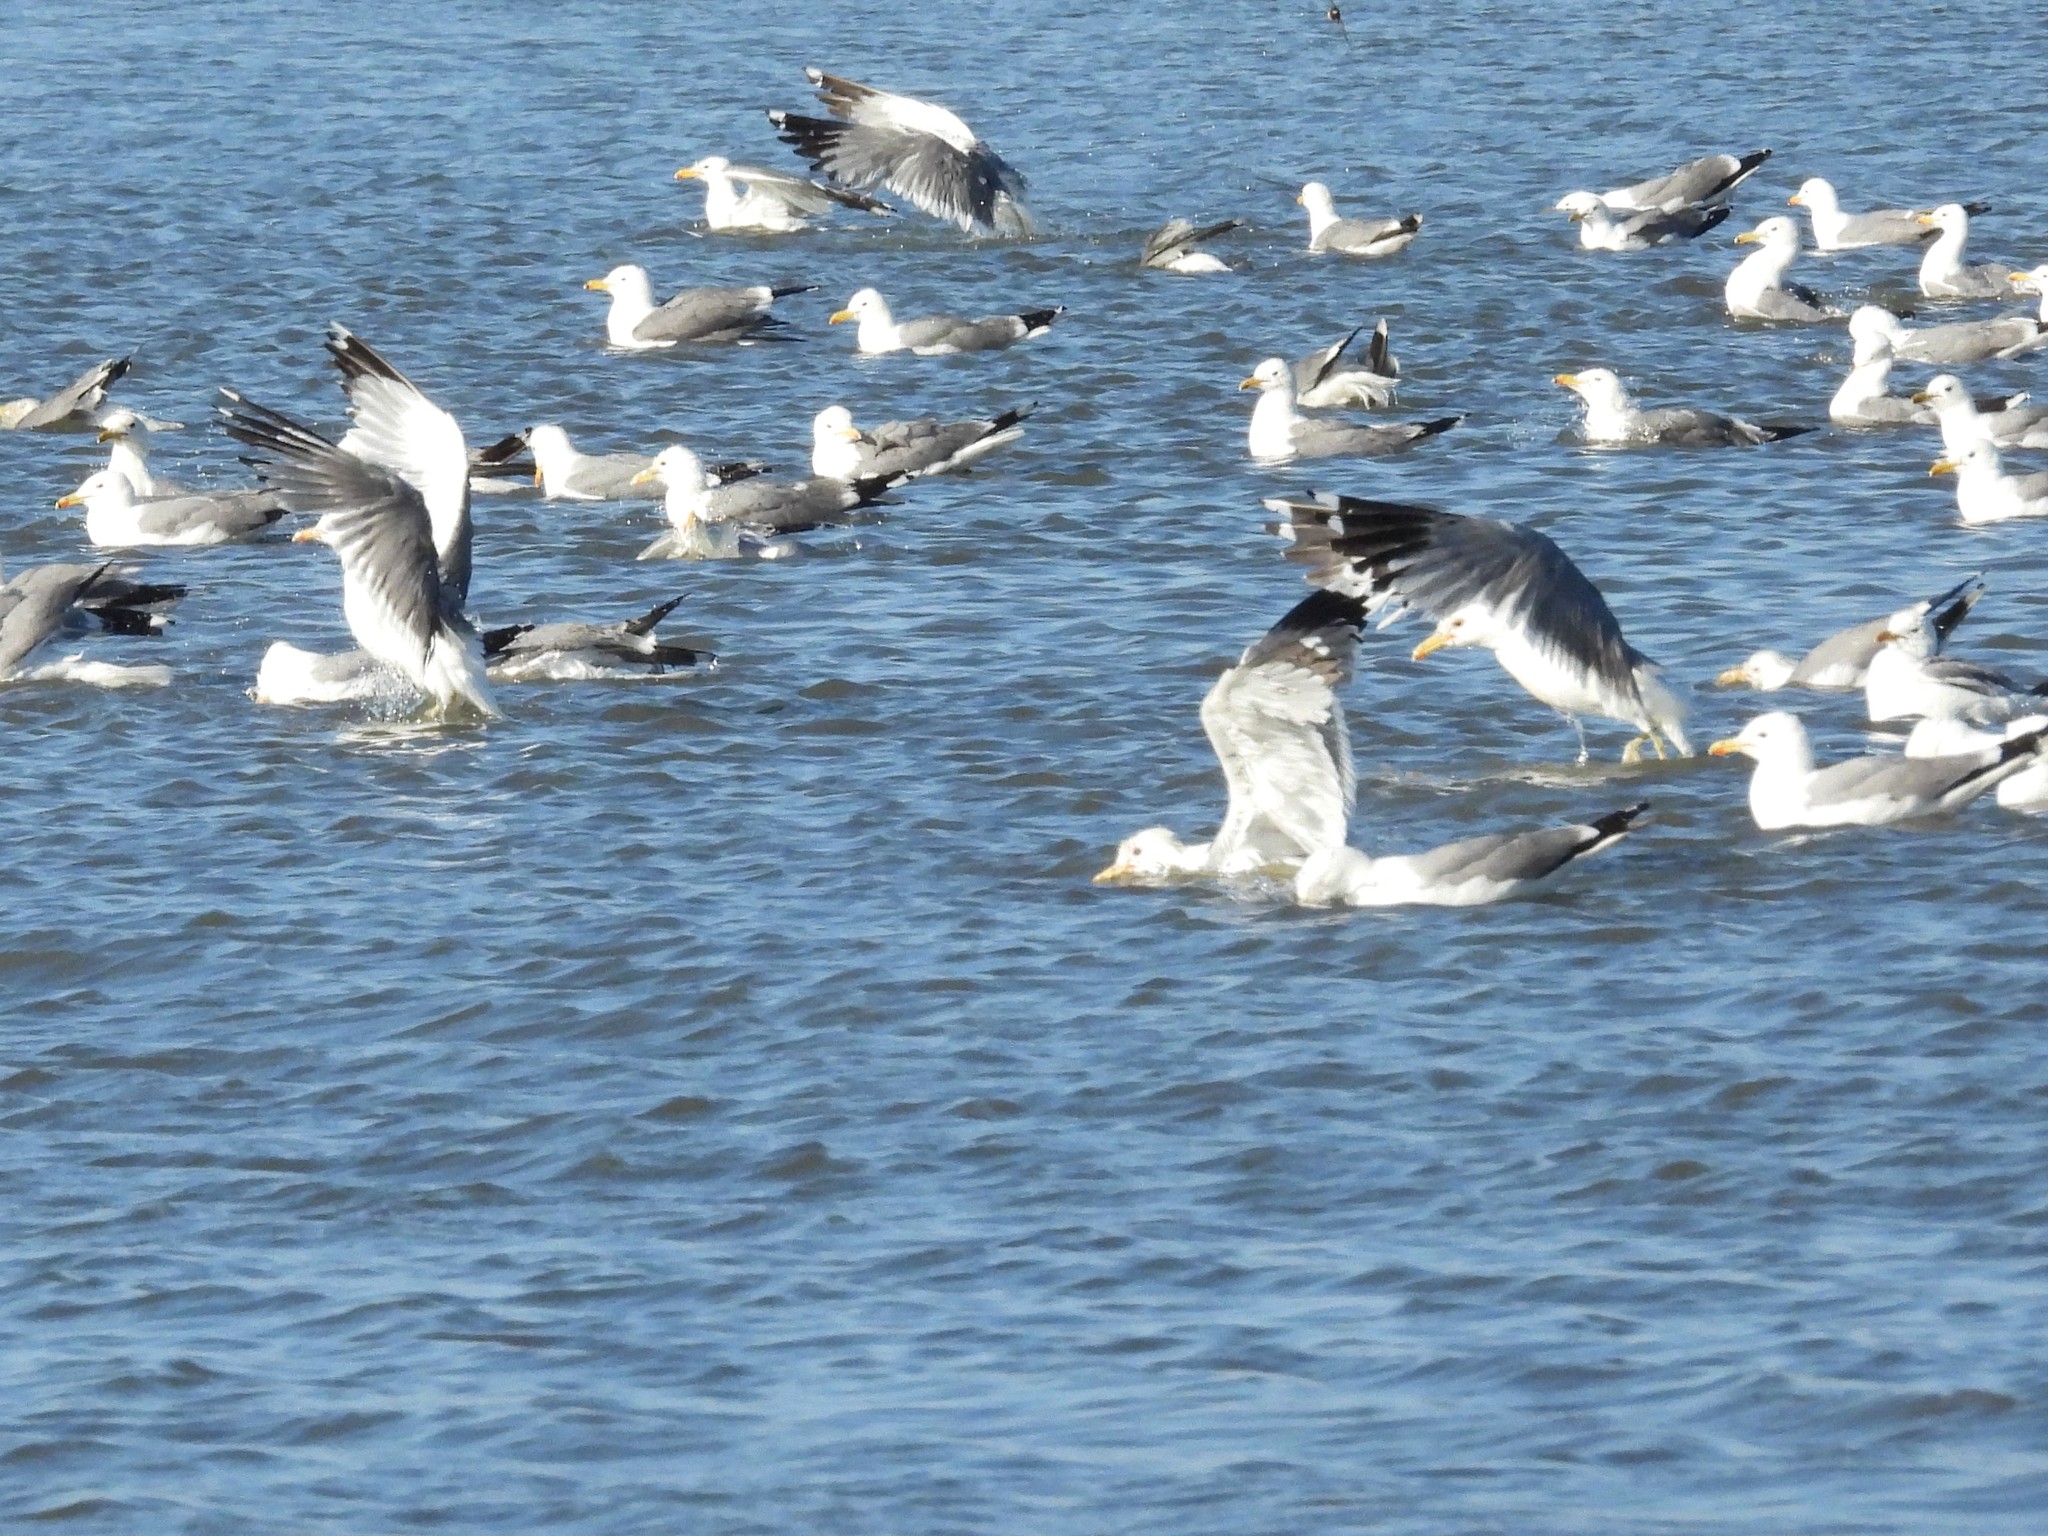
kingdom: Animalia
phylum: Chordata
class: Aves
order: Charadriiformes
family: Laridae
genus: Larus
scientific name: Larus californicus
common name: California gull
